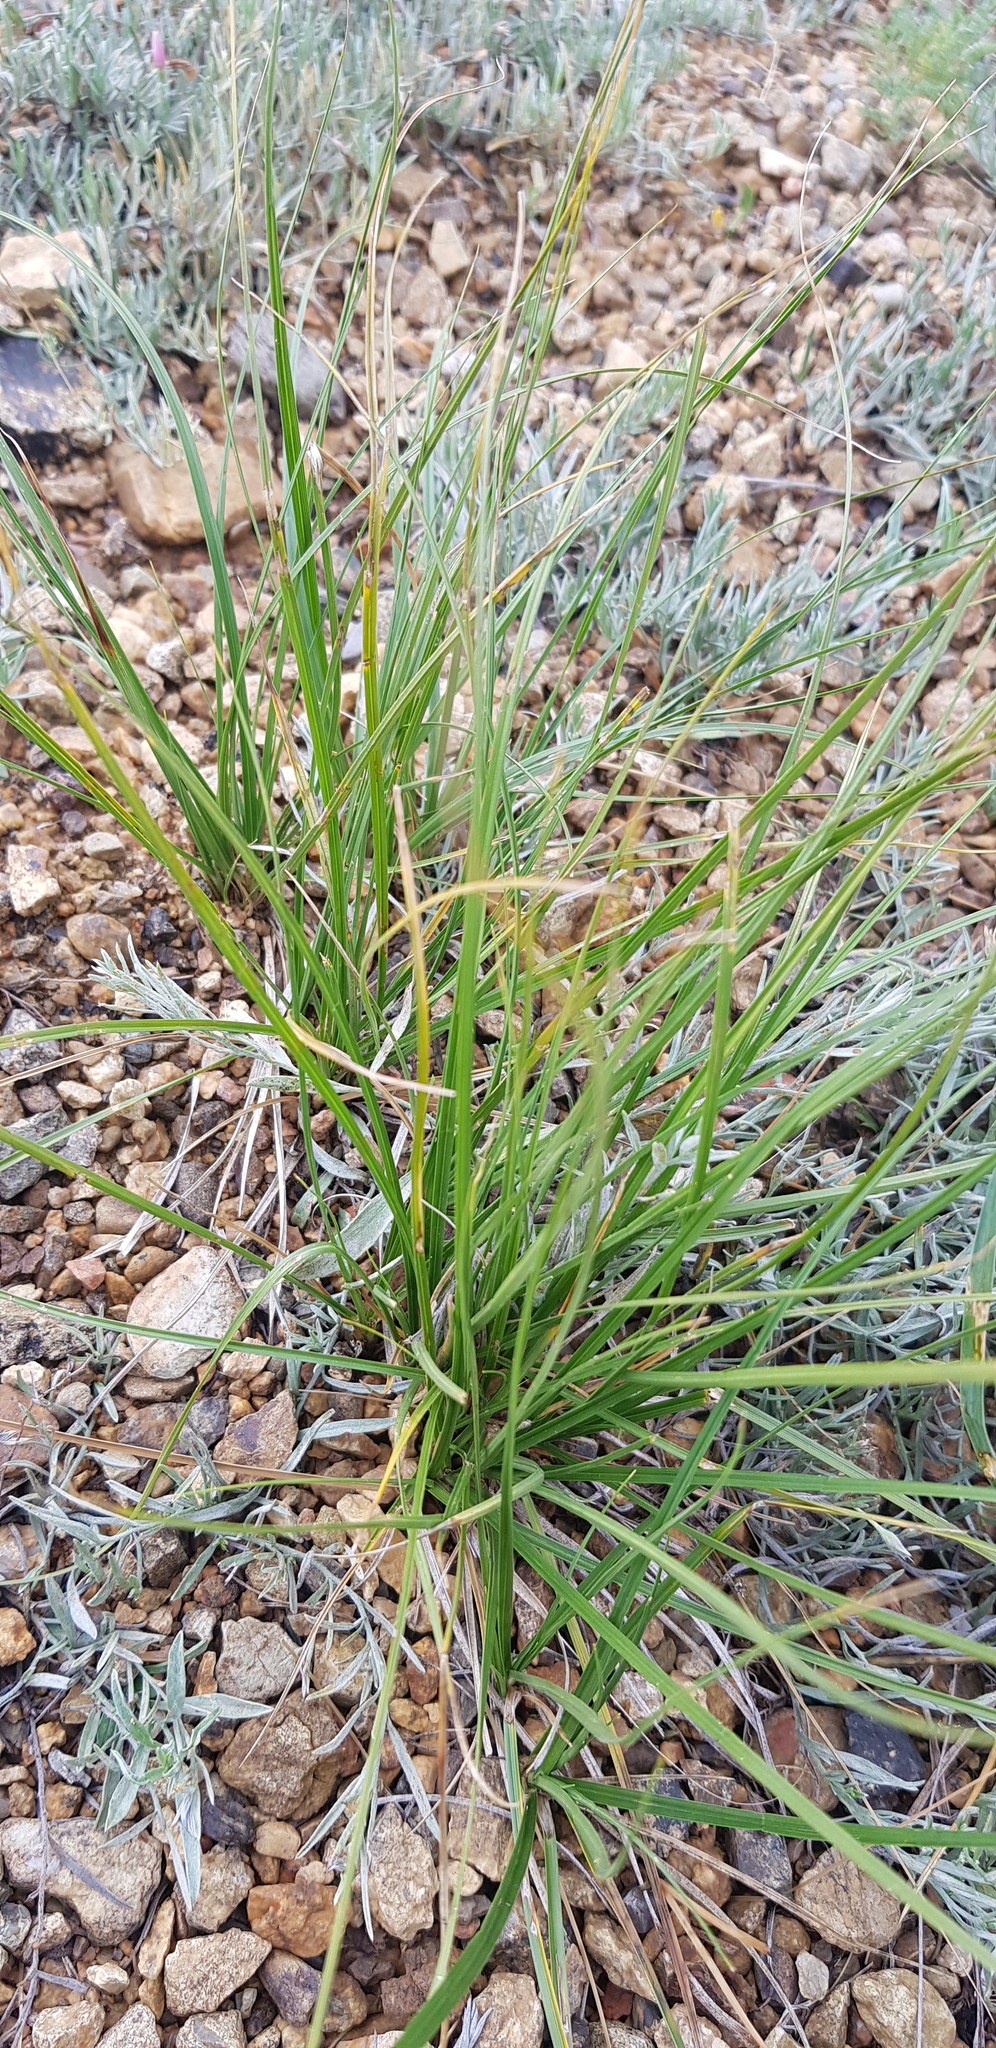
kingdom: Plantae
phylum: Tracheophyta
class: Liliopsida
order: Poales
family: Cyperaceae
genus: Carex
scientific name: Carex duriuscula
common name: Involute-leaved sedge
